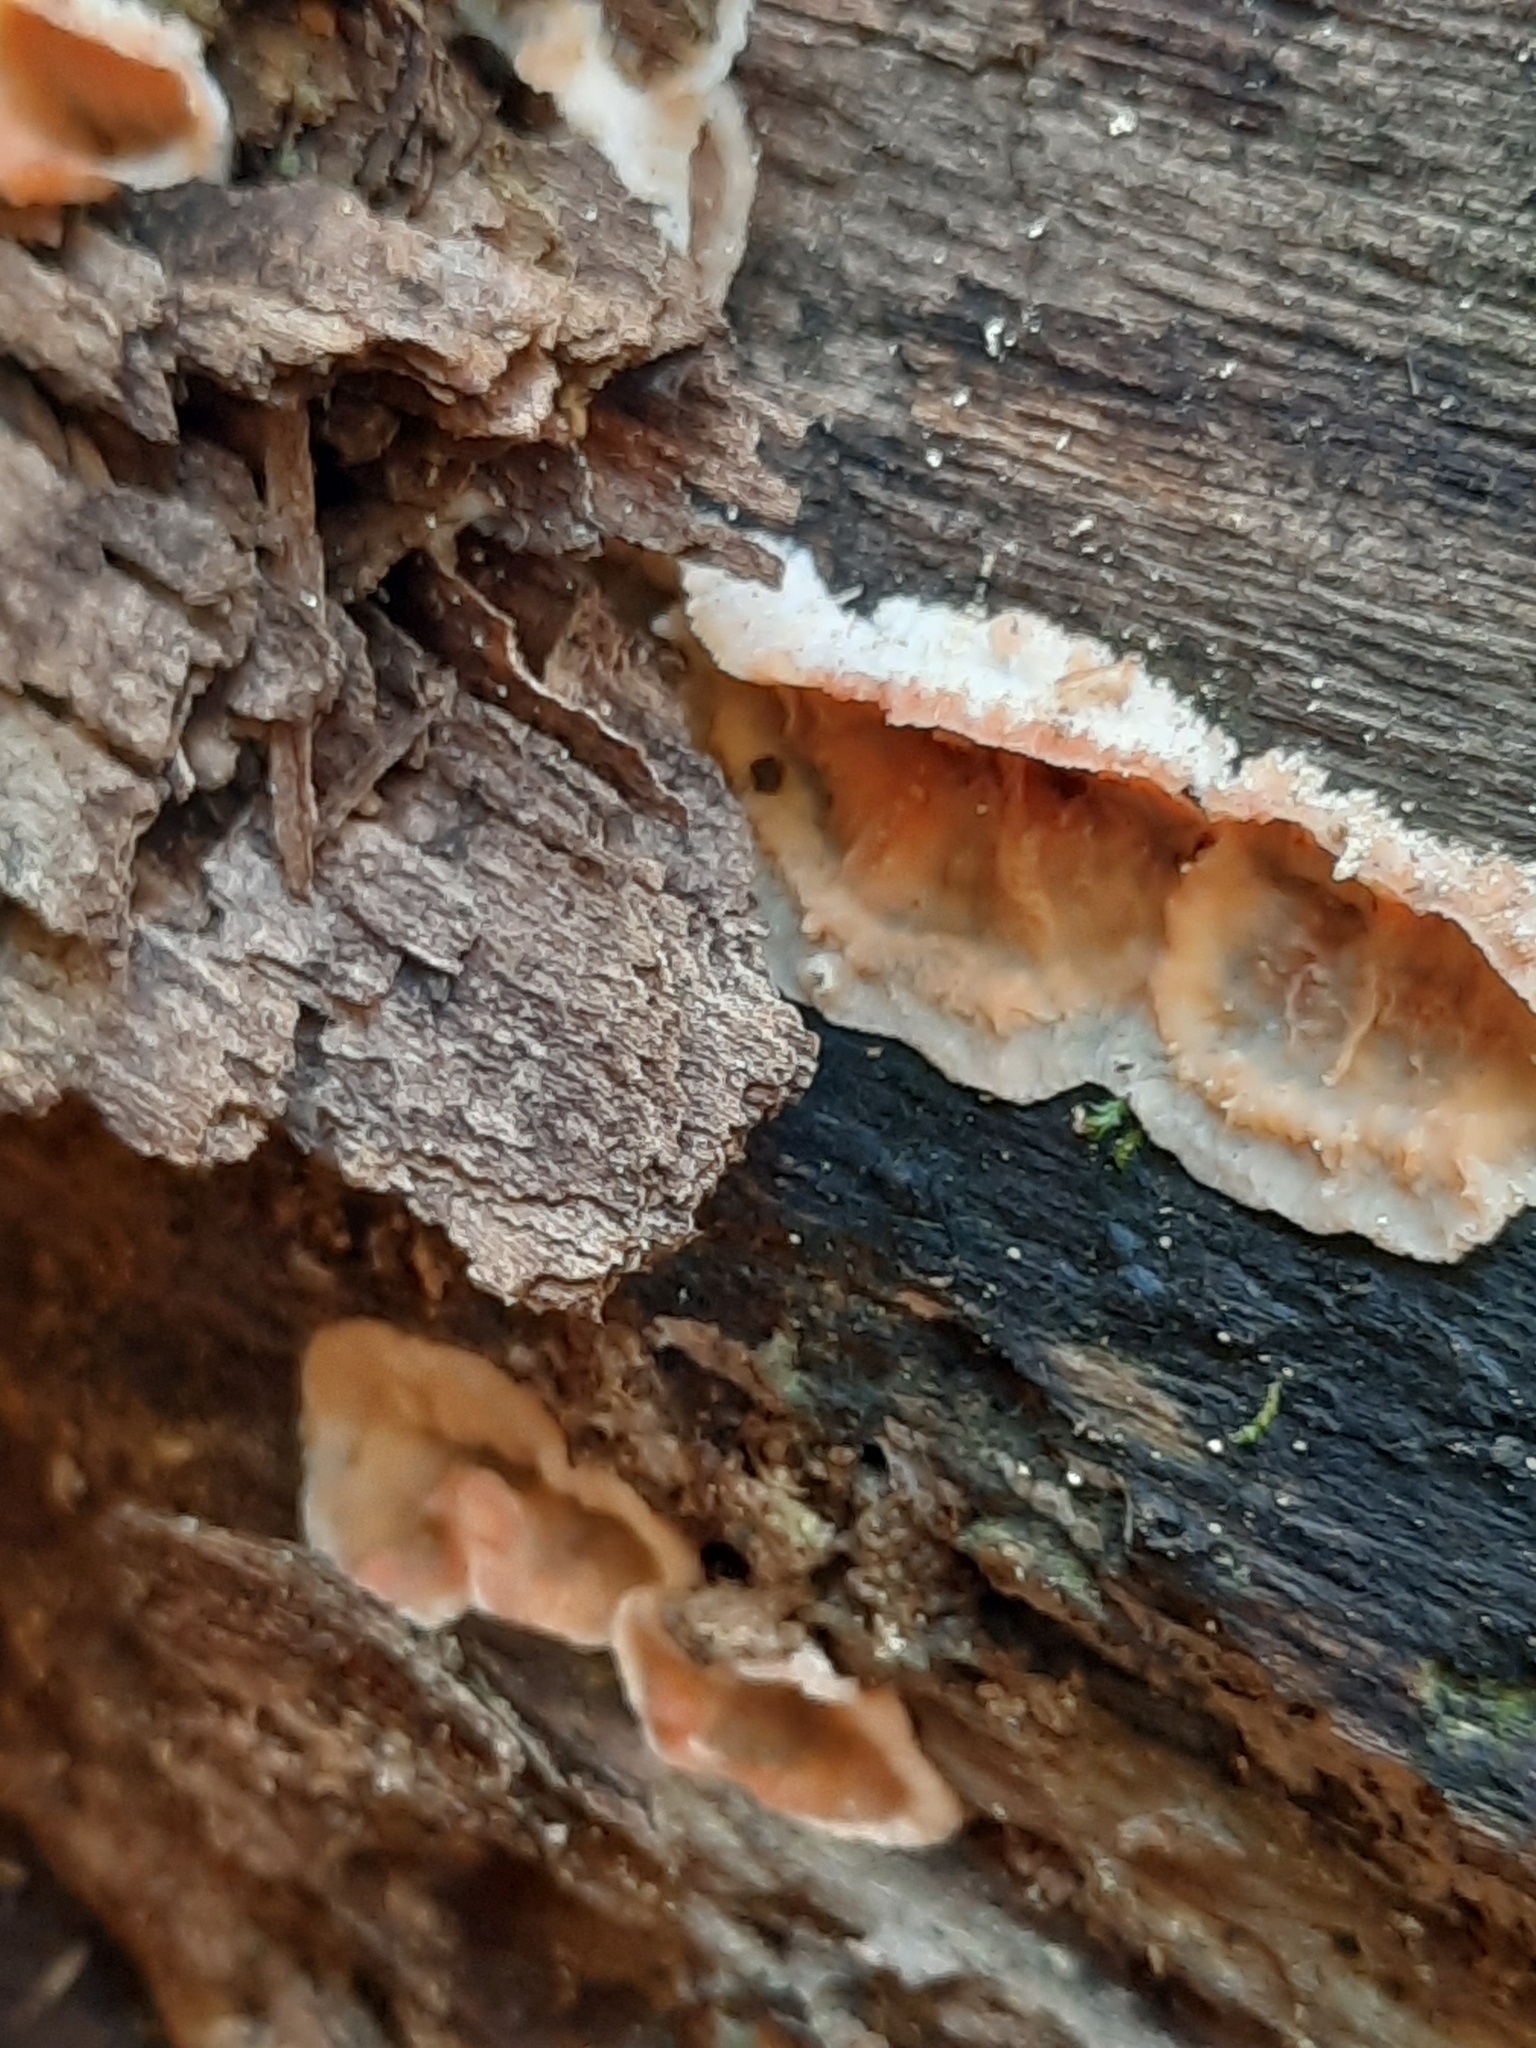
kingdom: Fungi
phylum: Basidiomycota
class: Agaricomycetes
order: Polyporales
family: Meruliaceae
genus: Phlebia
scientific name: Phlebia tremellosa
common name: Jelly rot
